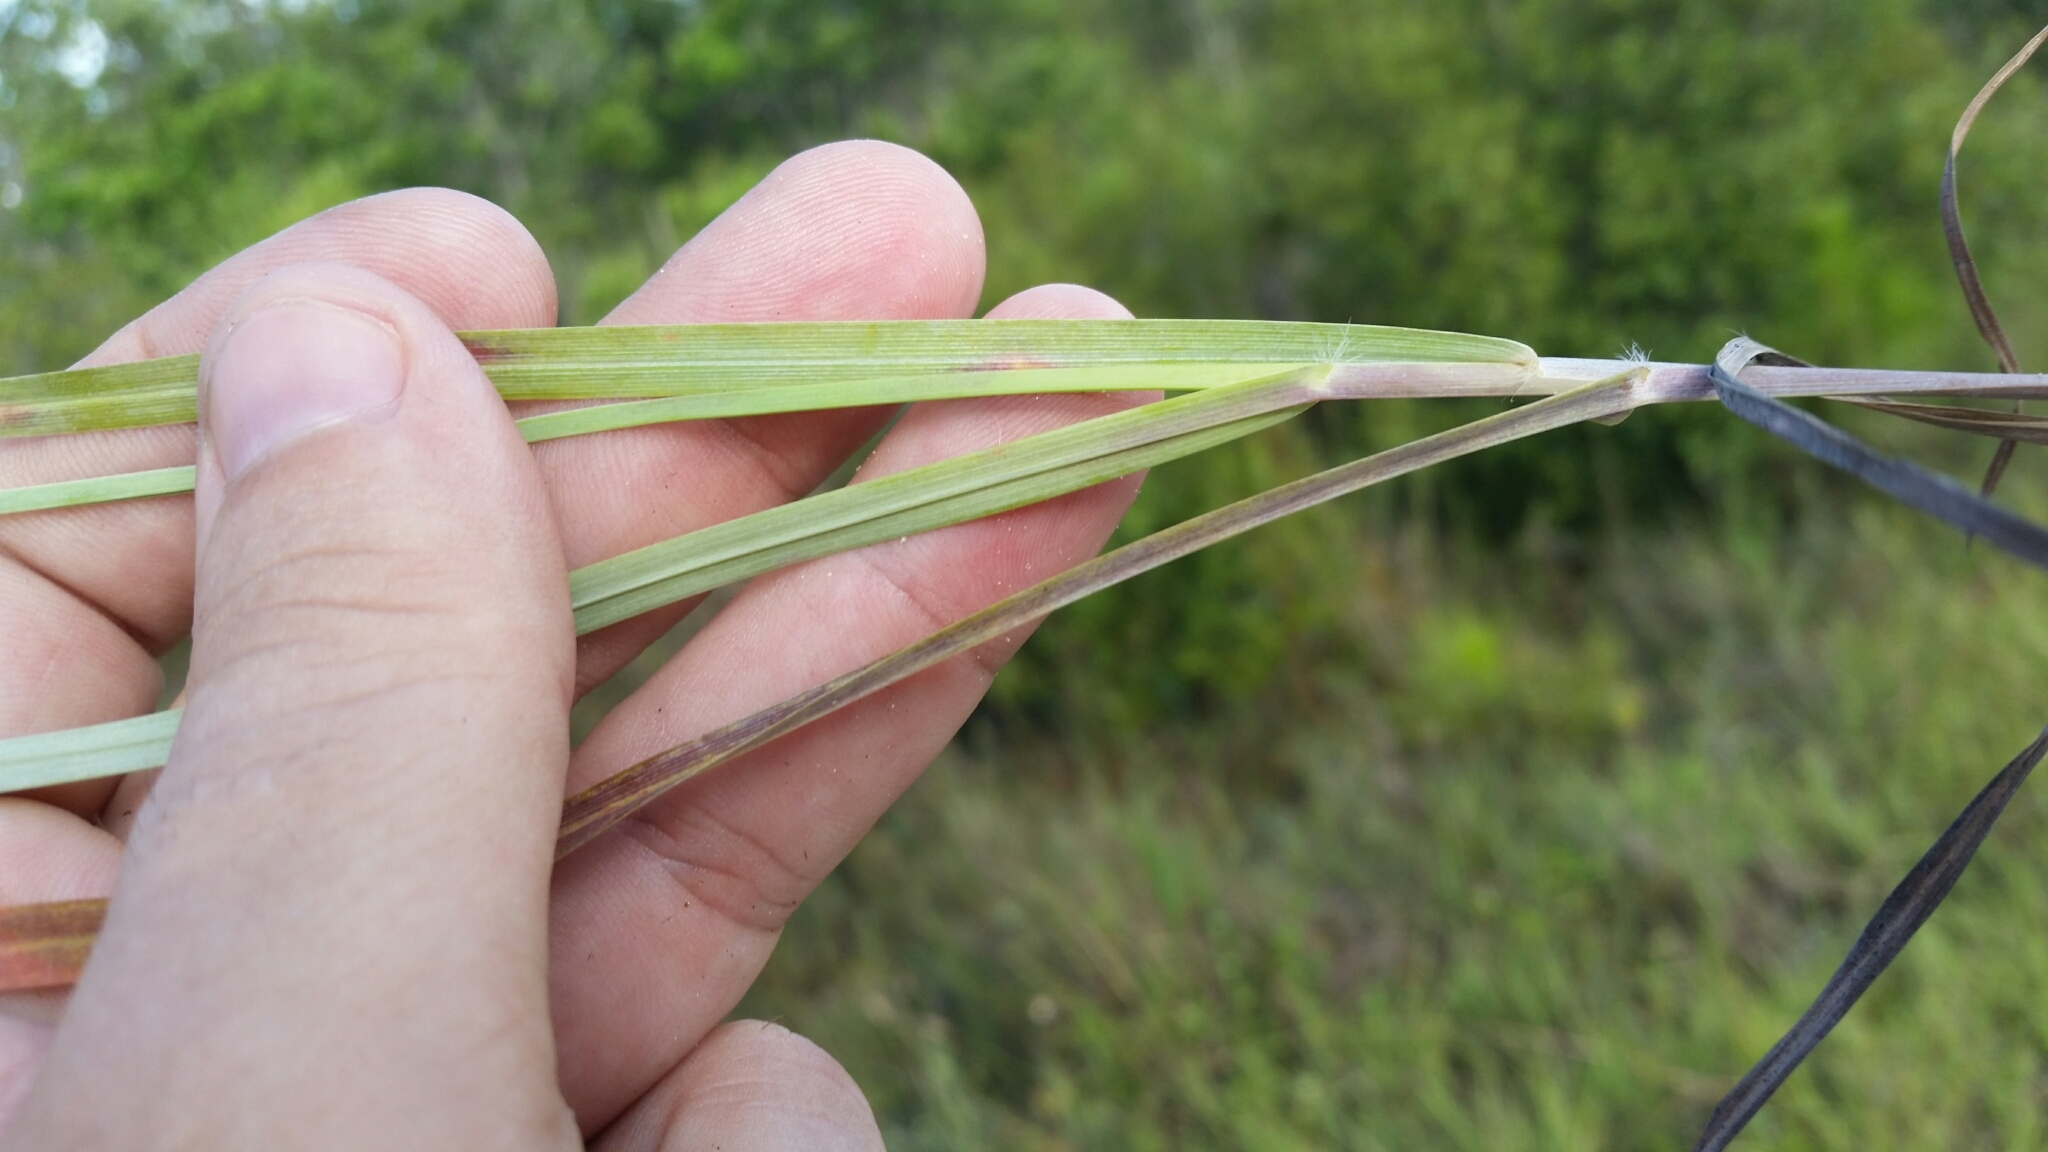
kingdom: Plantae
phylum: Tracheophyta
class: Liliopsida
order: Poales
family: Poaceae
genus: Schizachyrium
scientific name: Schizachyrium sanguineum
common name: Crimson bluestem
